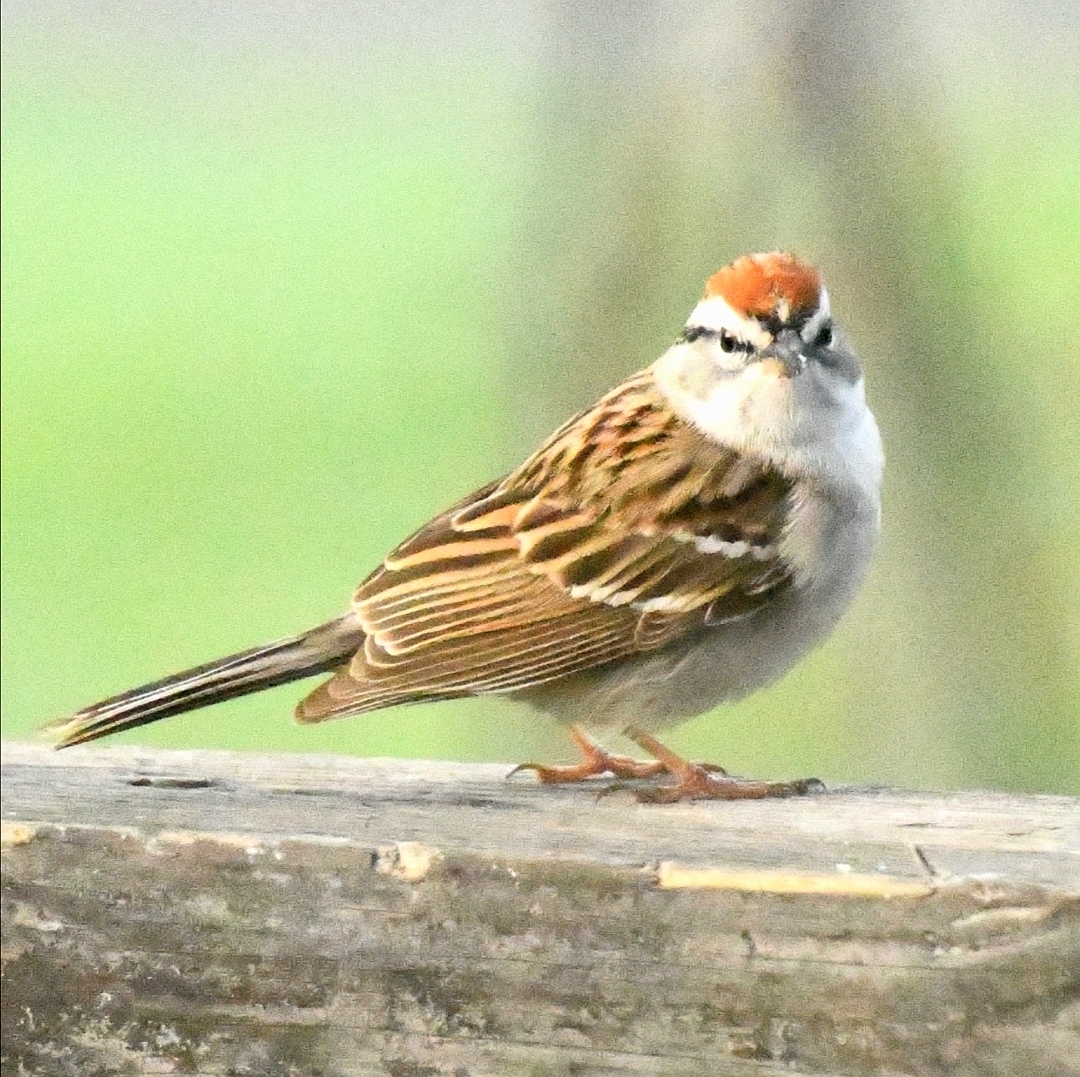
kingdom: Animalia
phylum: Chordata
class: Aves
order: Passeriformes
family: Passerellidae
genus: Spizella
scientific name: Spizella passerina
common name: Chipping sparrow
